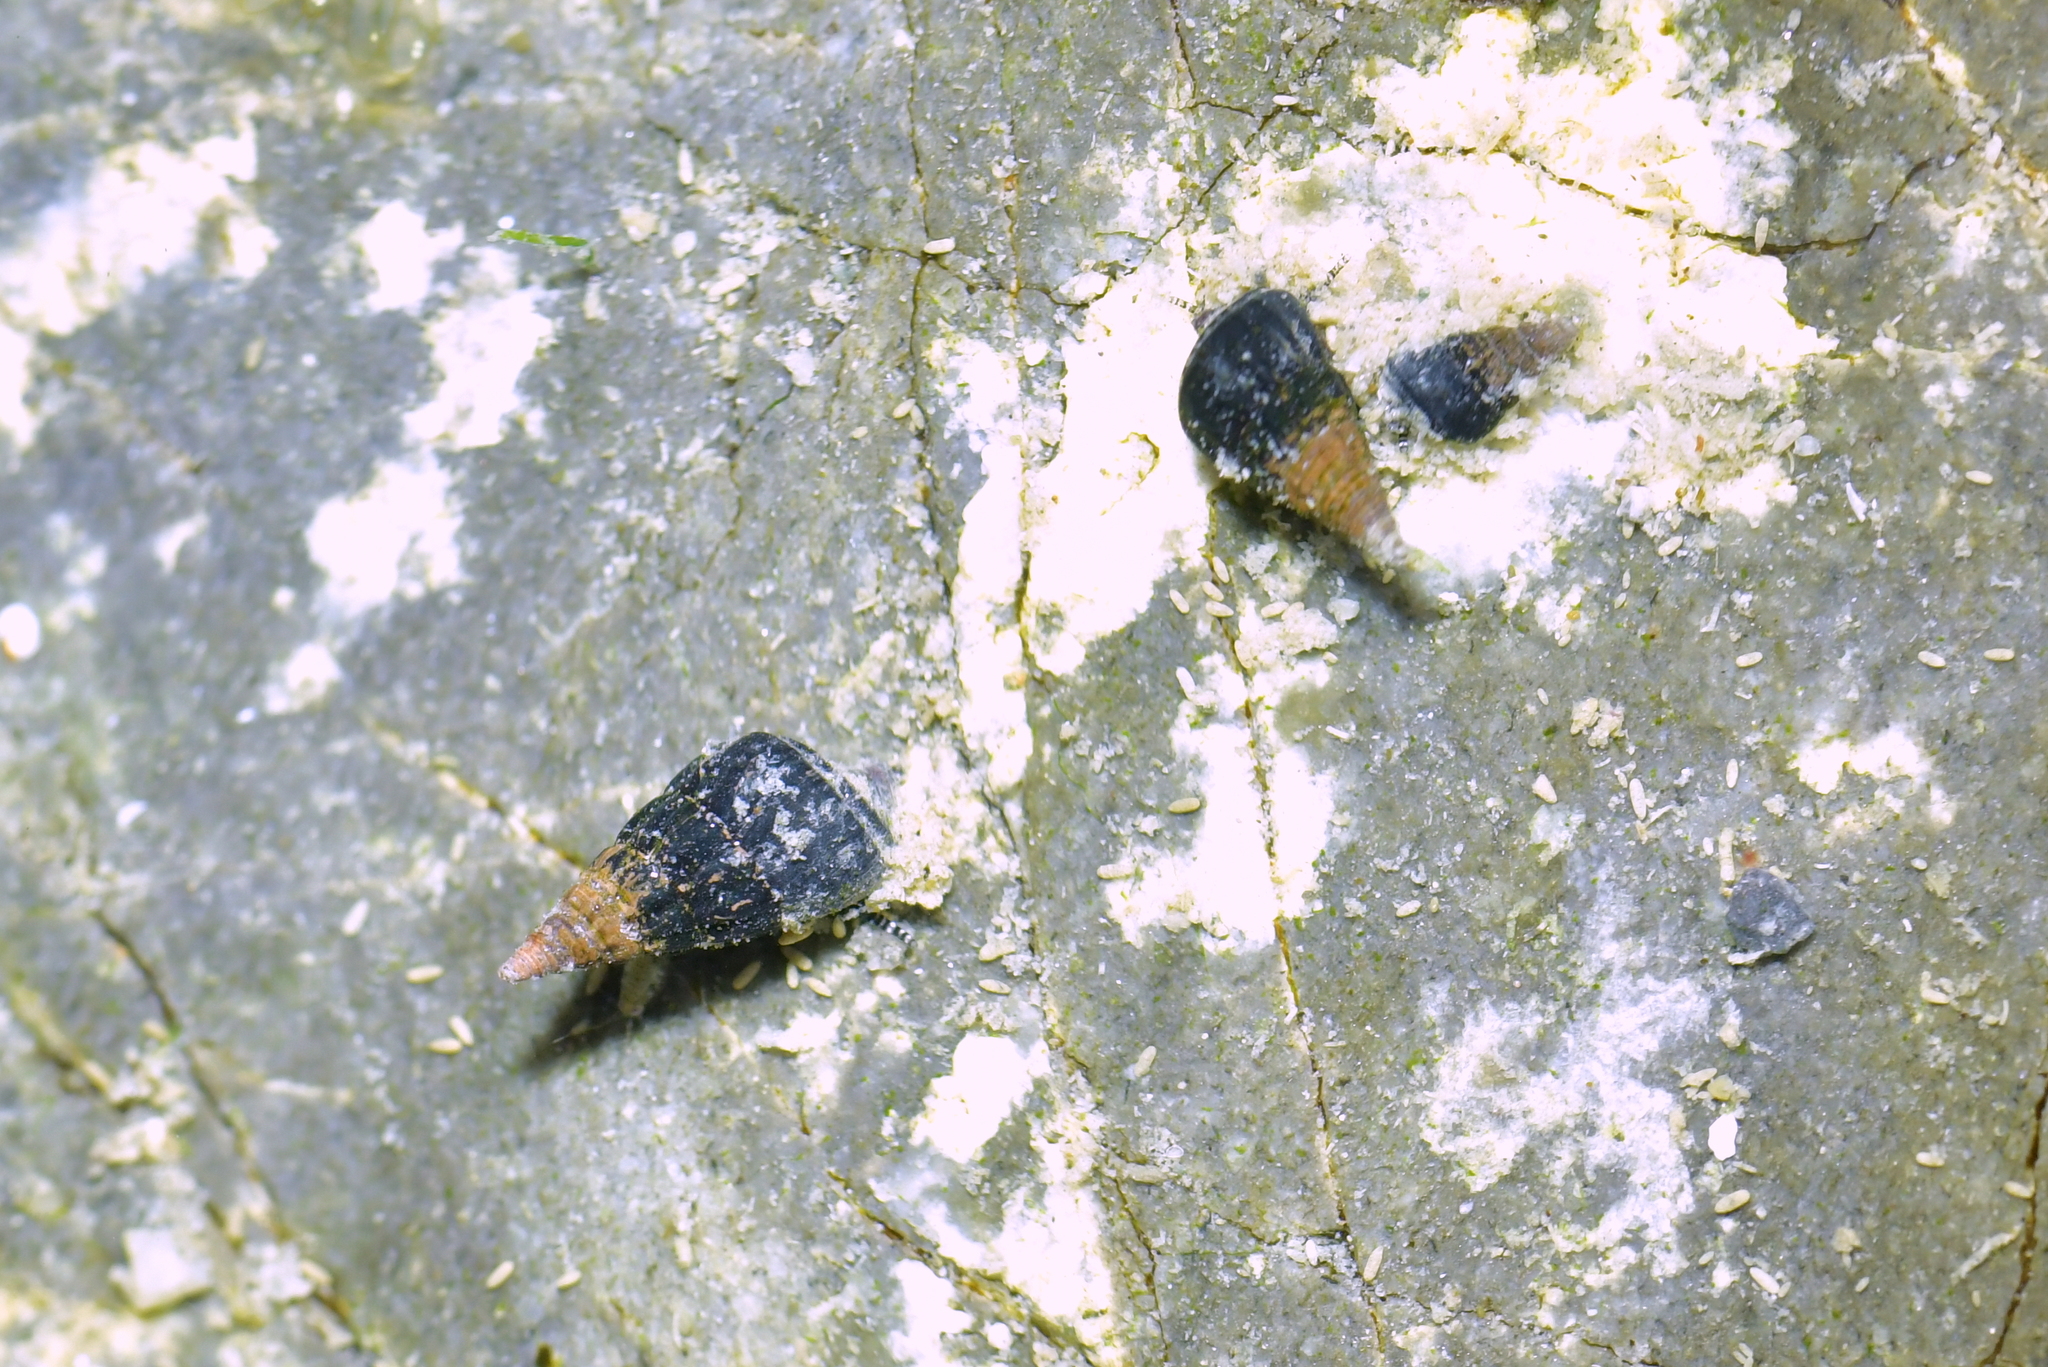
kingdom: Animalia
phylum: Mollusca
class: Gastropoda
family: Batillariidae
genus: Zeacumantus
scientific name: Zeacumantus subcarinatus
